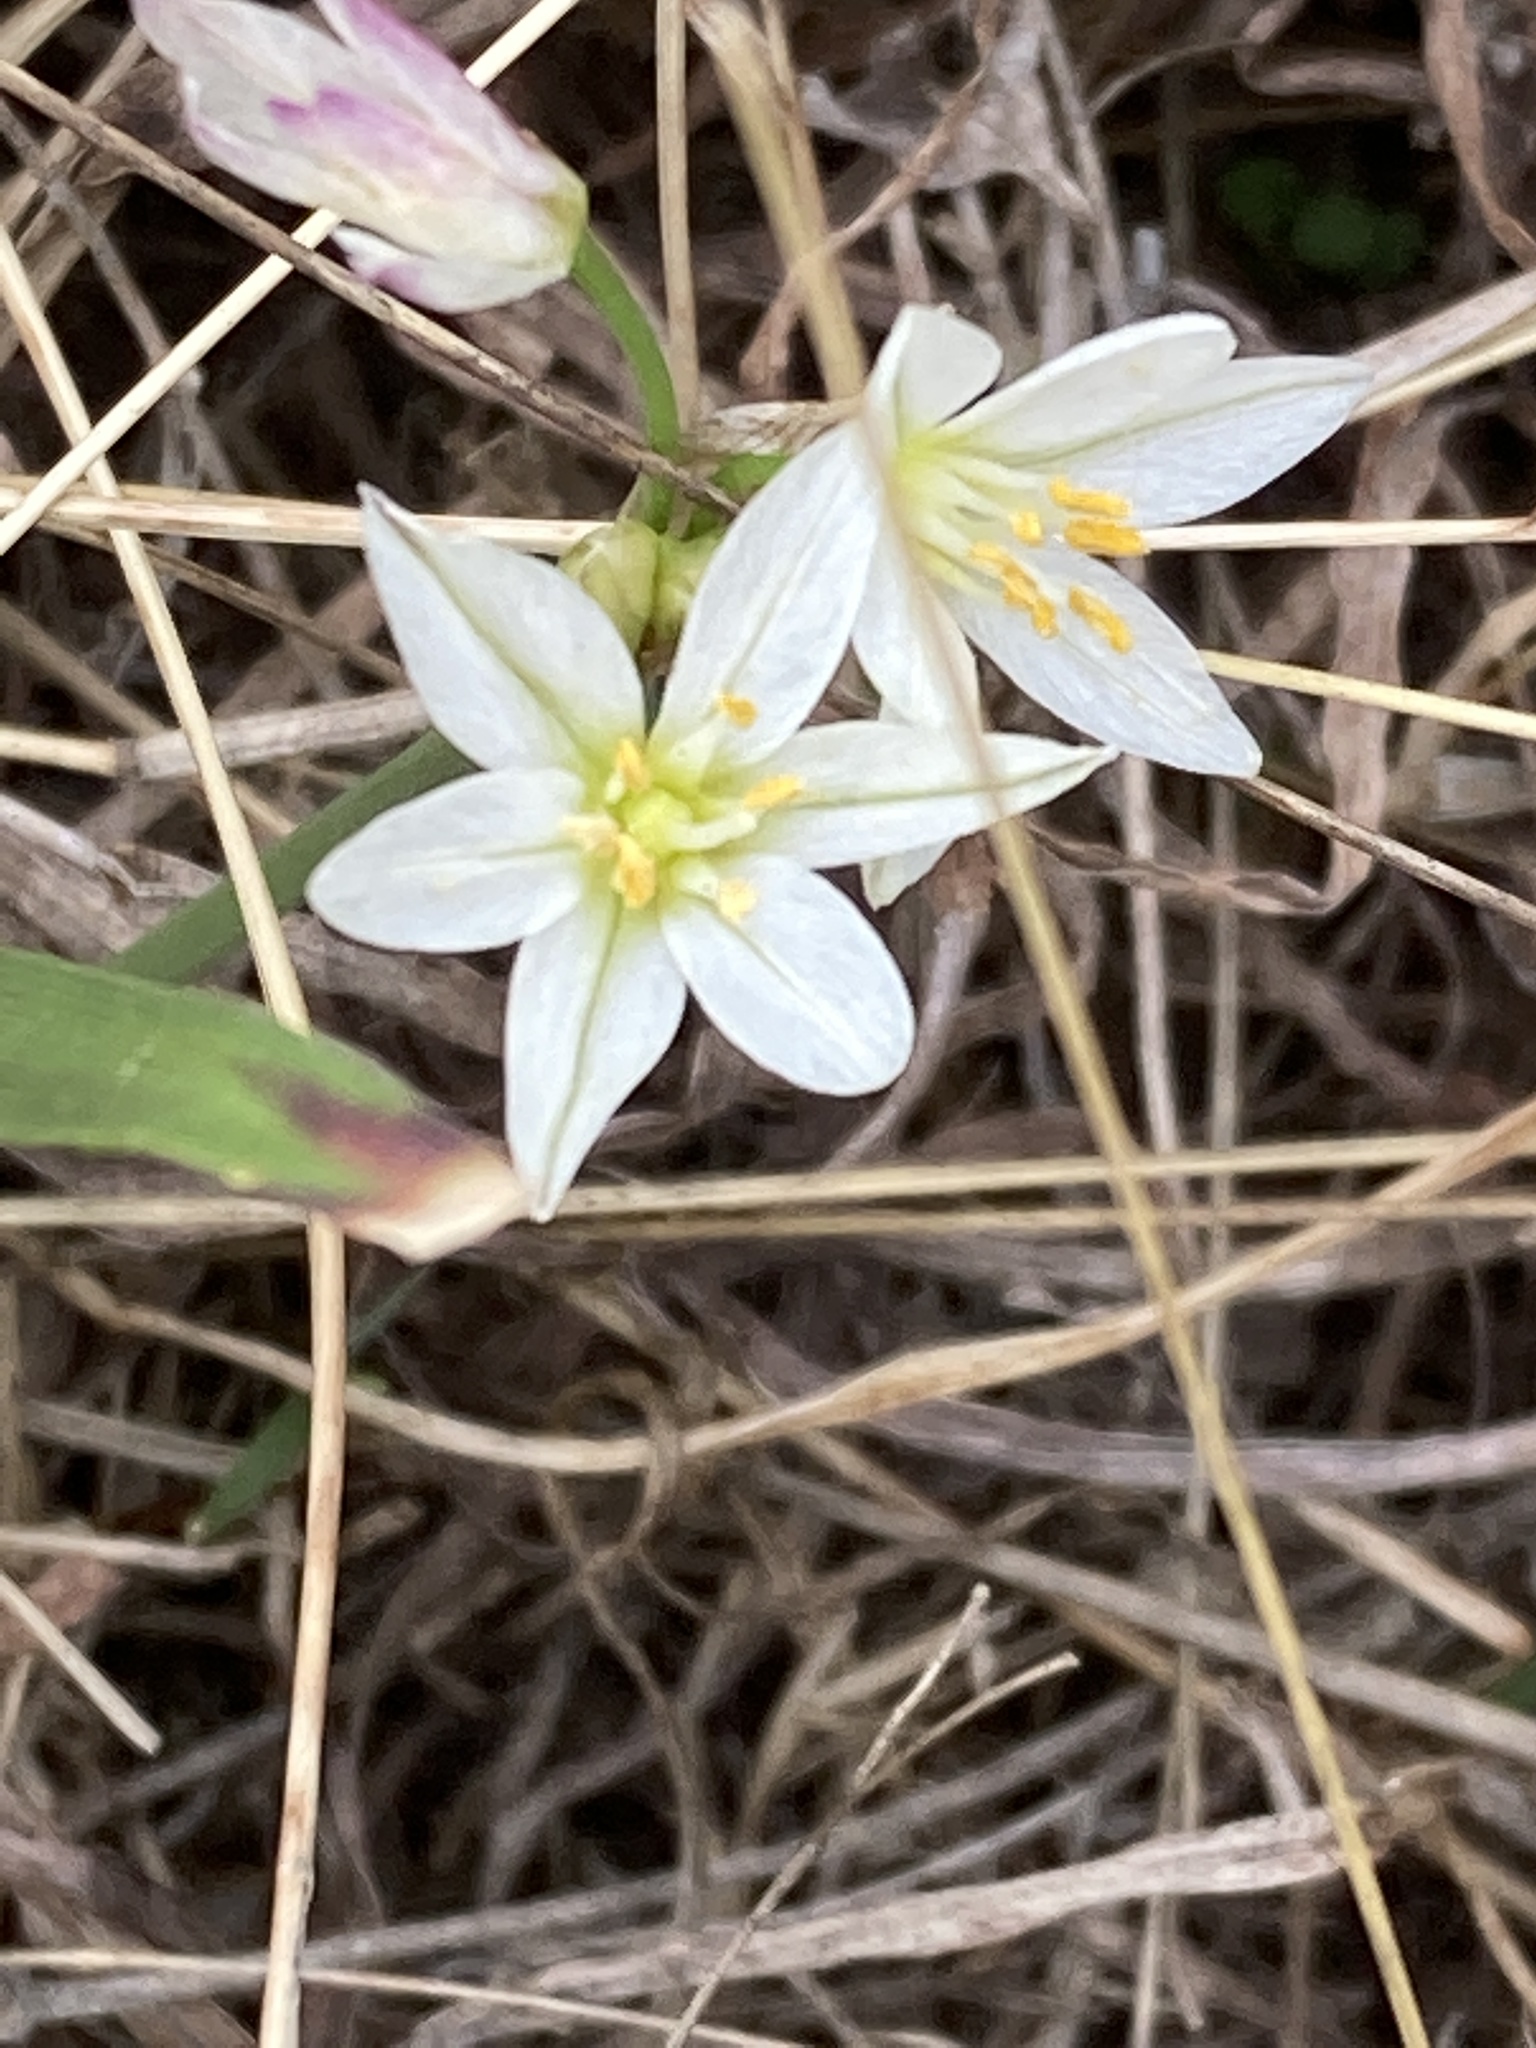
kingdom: Plantae
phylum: Tracheophyta
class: Liliopsida
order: Asparagales
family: Amaryllidaceae
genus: Nothoscordum
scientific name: Nothoscordum bivalve
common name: Crow-poison
